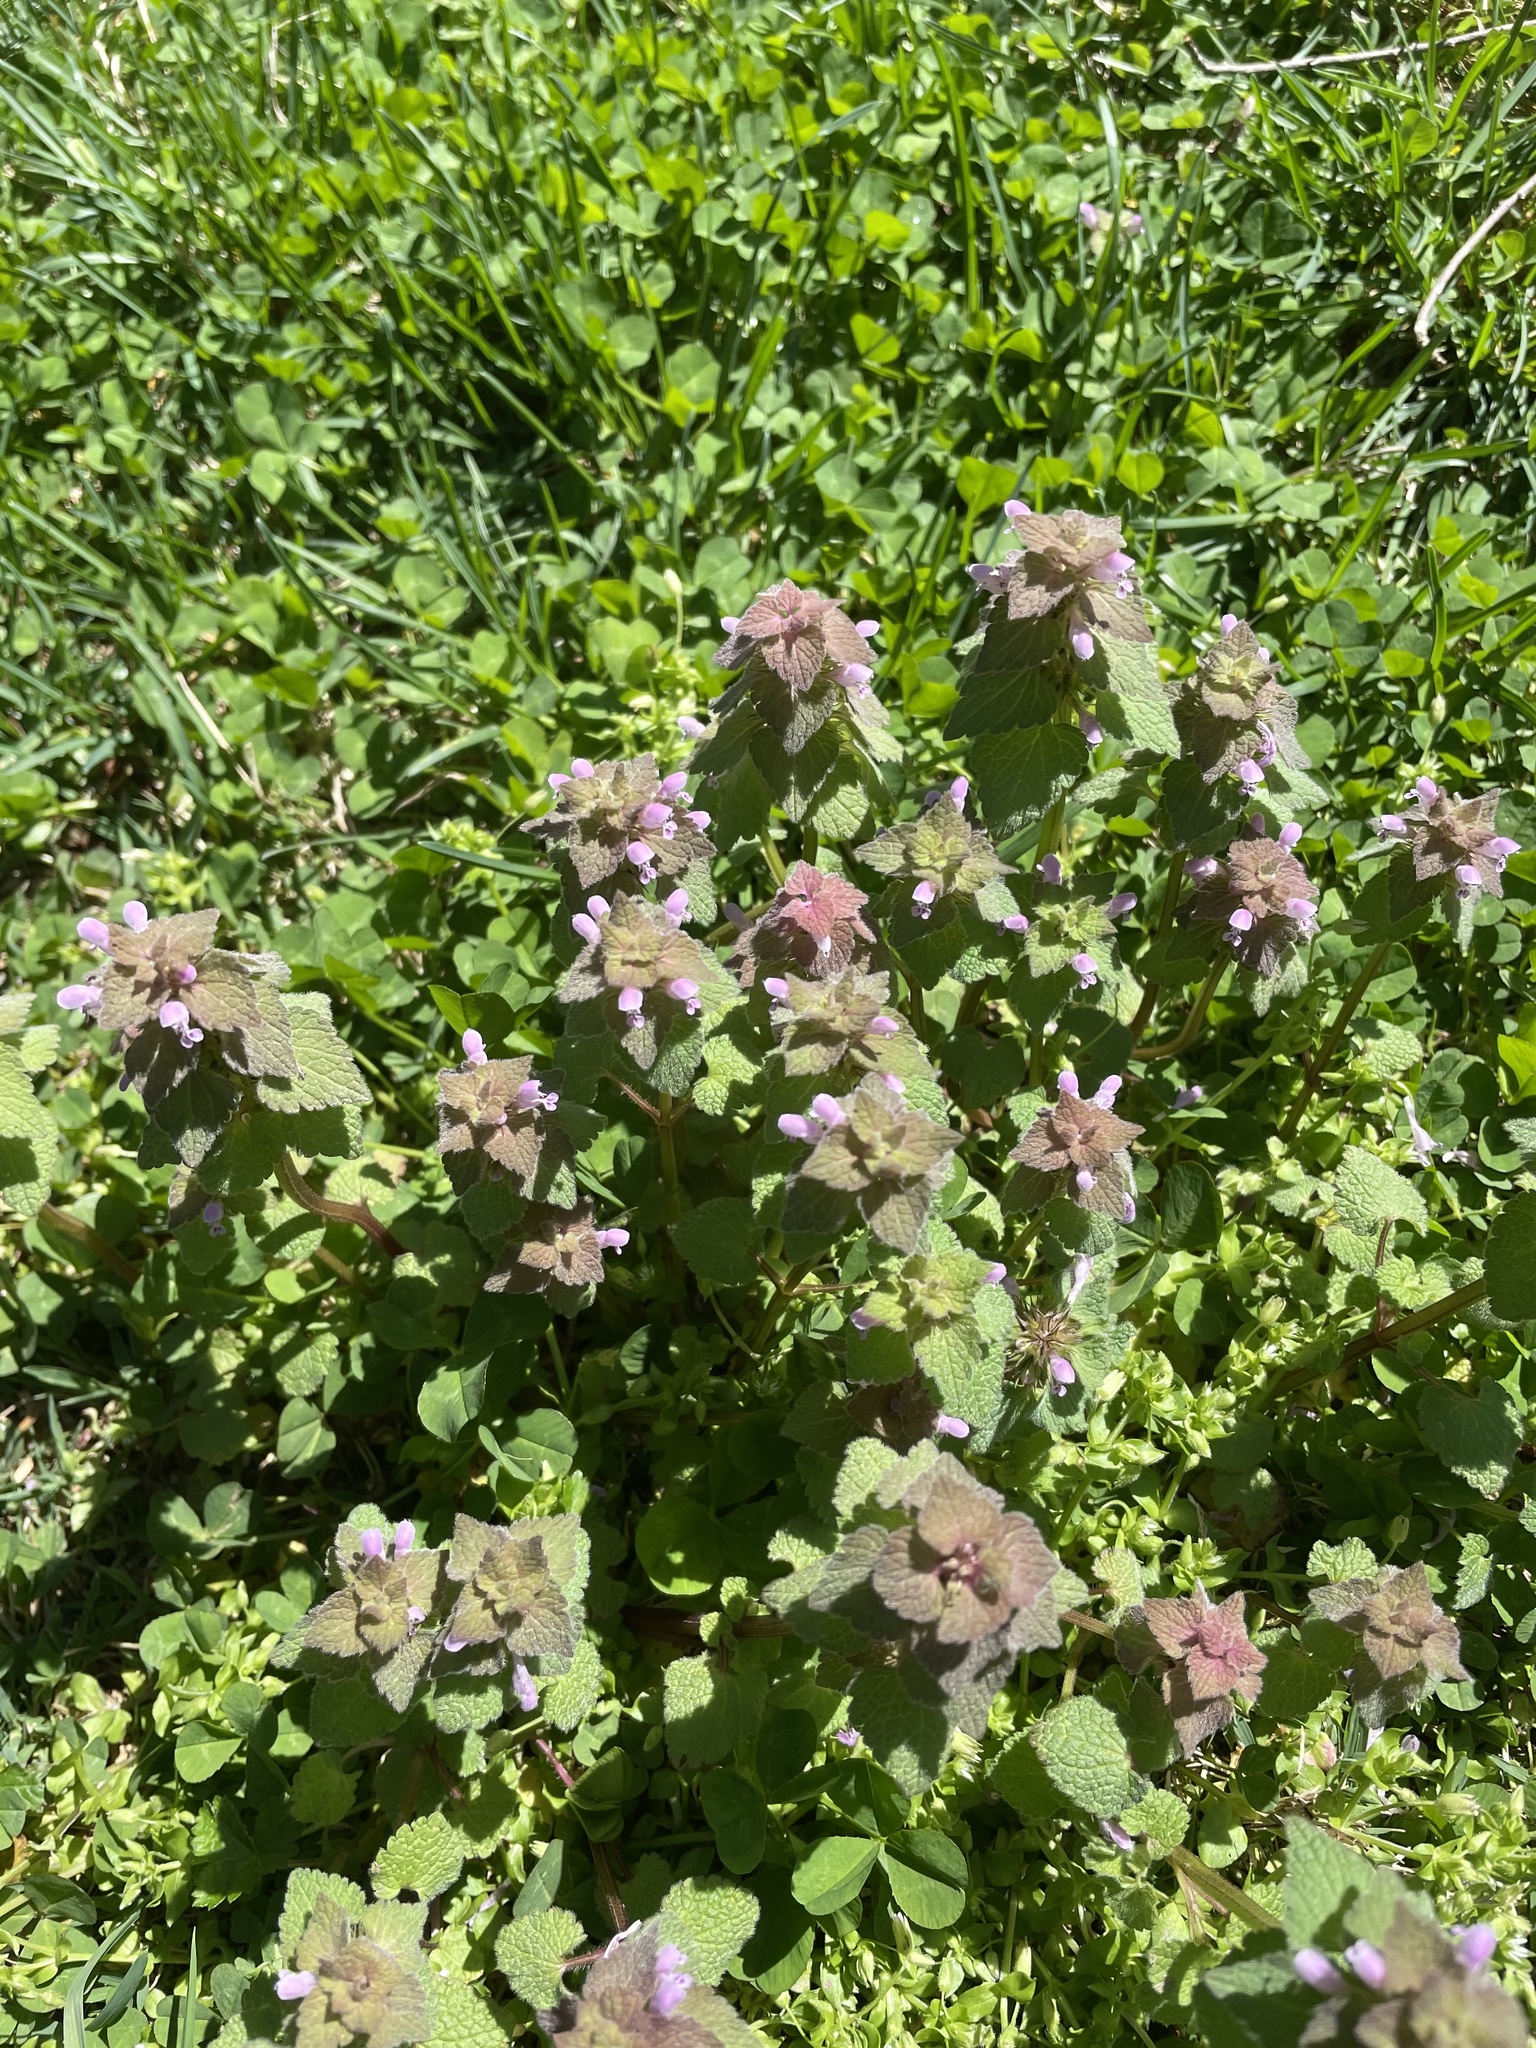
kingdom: Plantae
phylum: Tracheophyta
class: Magnoliopsida
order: Lamiales
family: Lamiaceae
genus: Lamium
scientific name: Lamium purpureum
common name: Red dead-nettle
